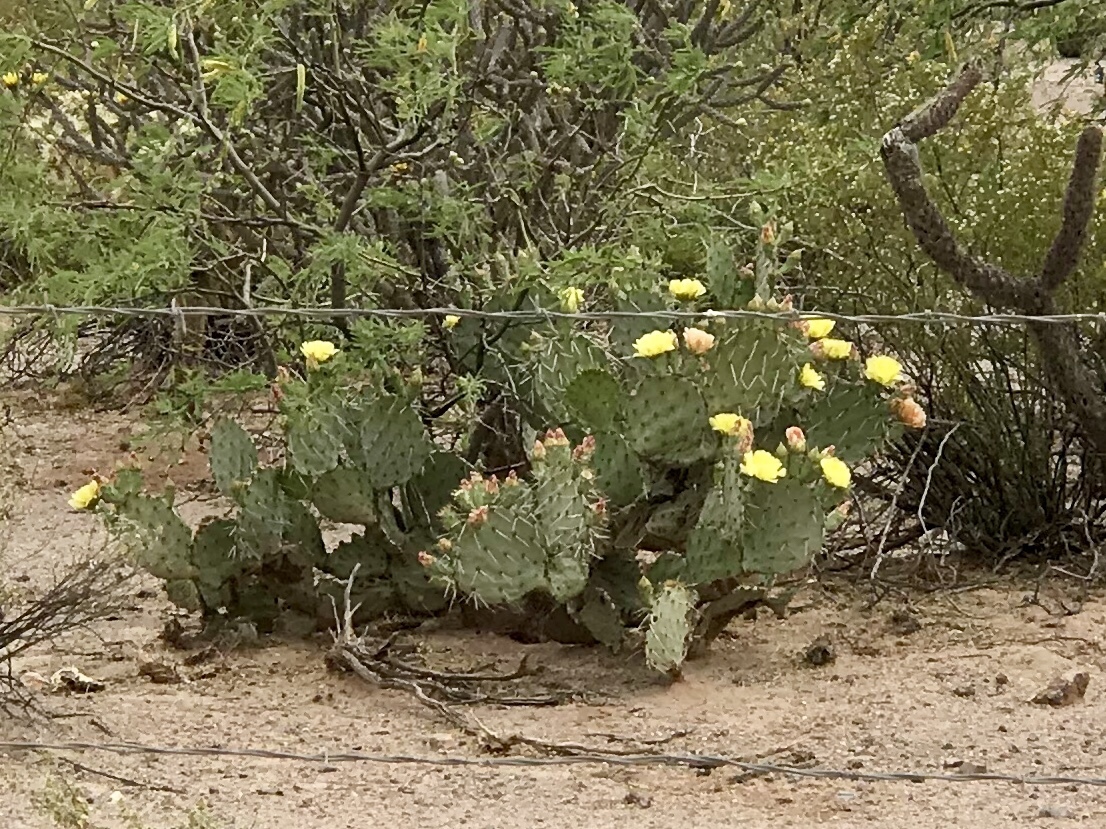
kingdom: Plantae
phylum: Tracheophyta
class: Magnoliopsida
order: Caryophyllales
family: Cactaceae
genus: Opuntia
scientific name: Opuntia engelmannii
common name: Cactus-apple
